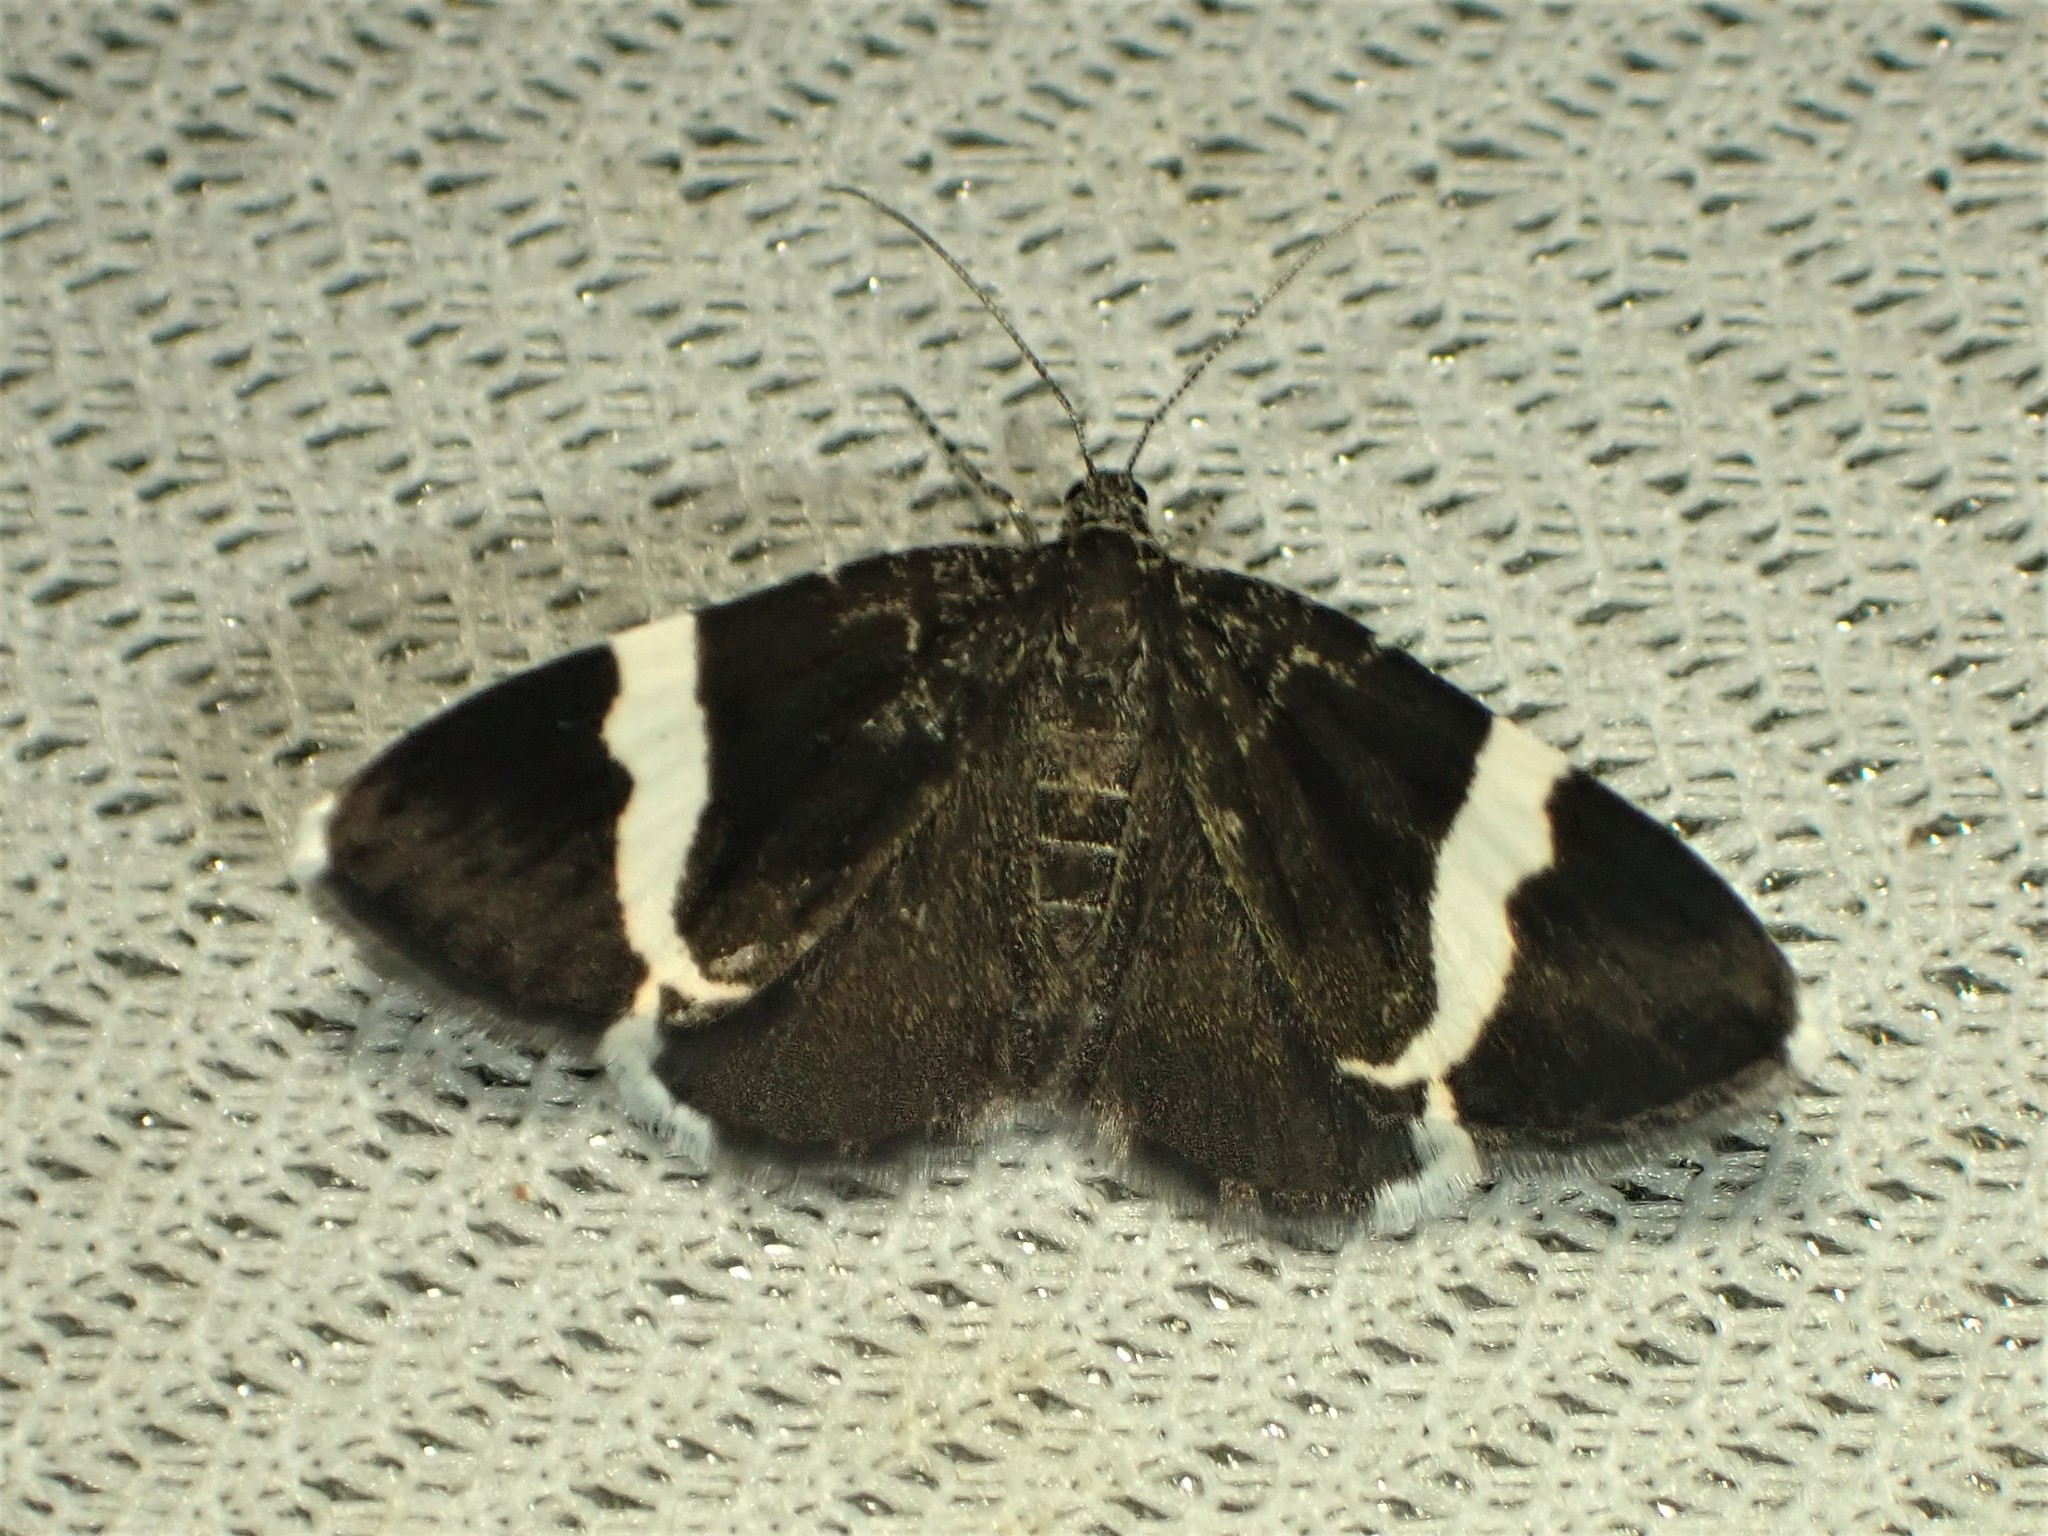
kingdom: Animalia
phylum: Arthropoda
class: Insecta
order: Lepidoptera
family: Geometridae
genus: Trichodezia
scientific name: Trichodezia albovittata
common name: White striped black
